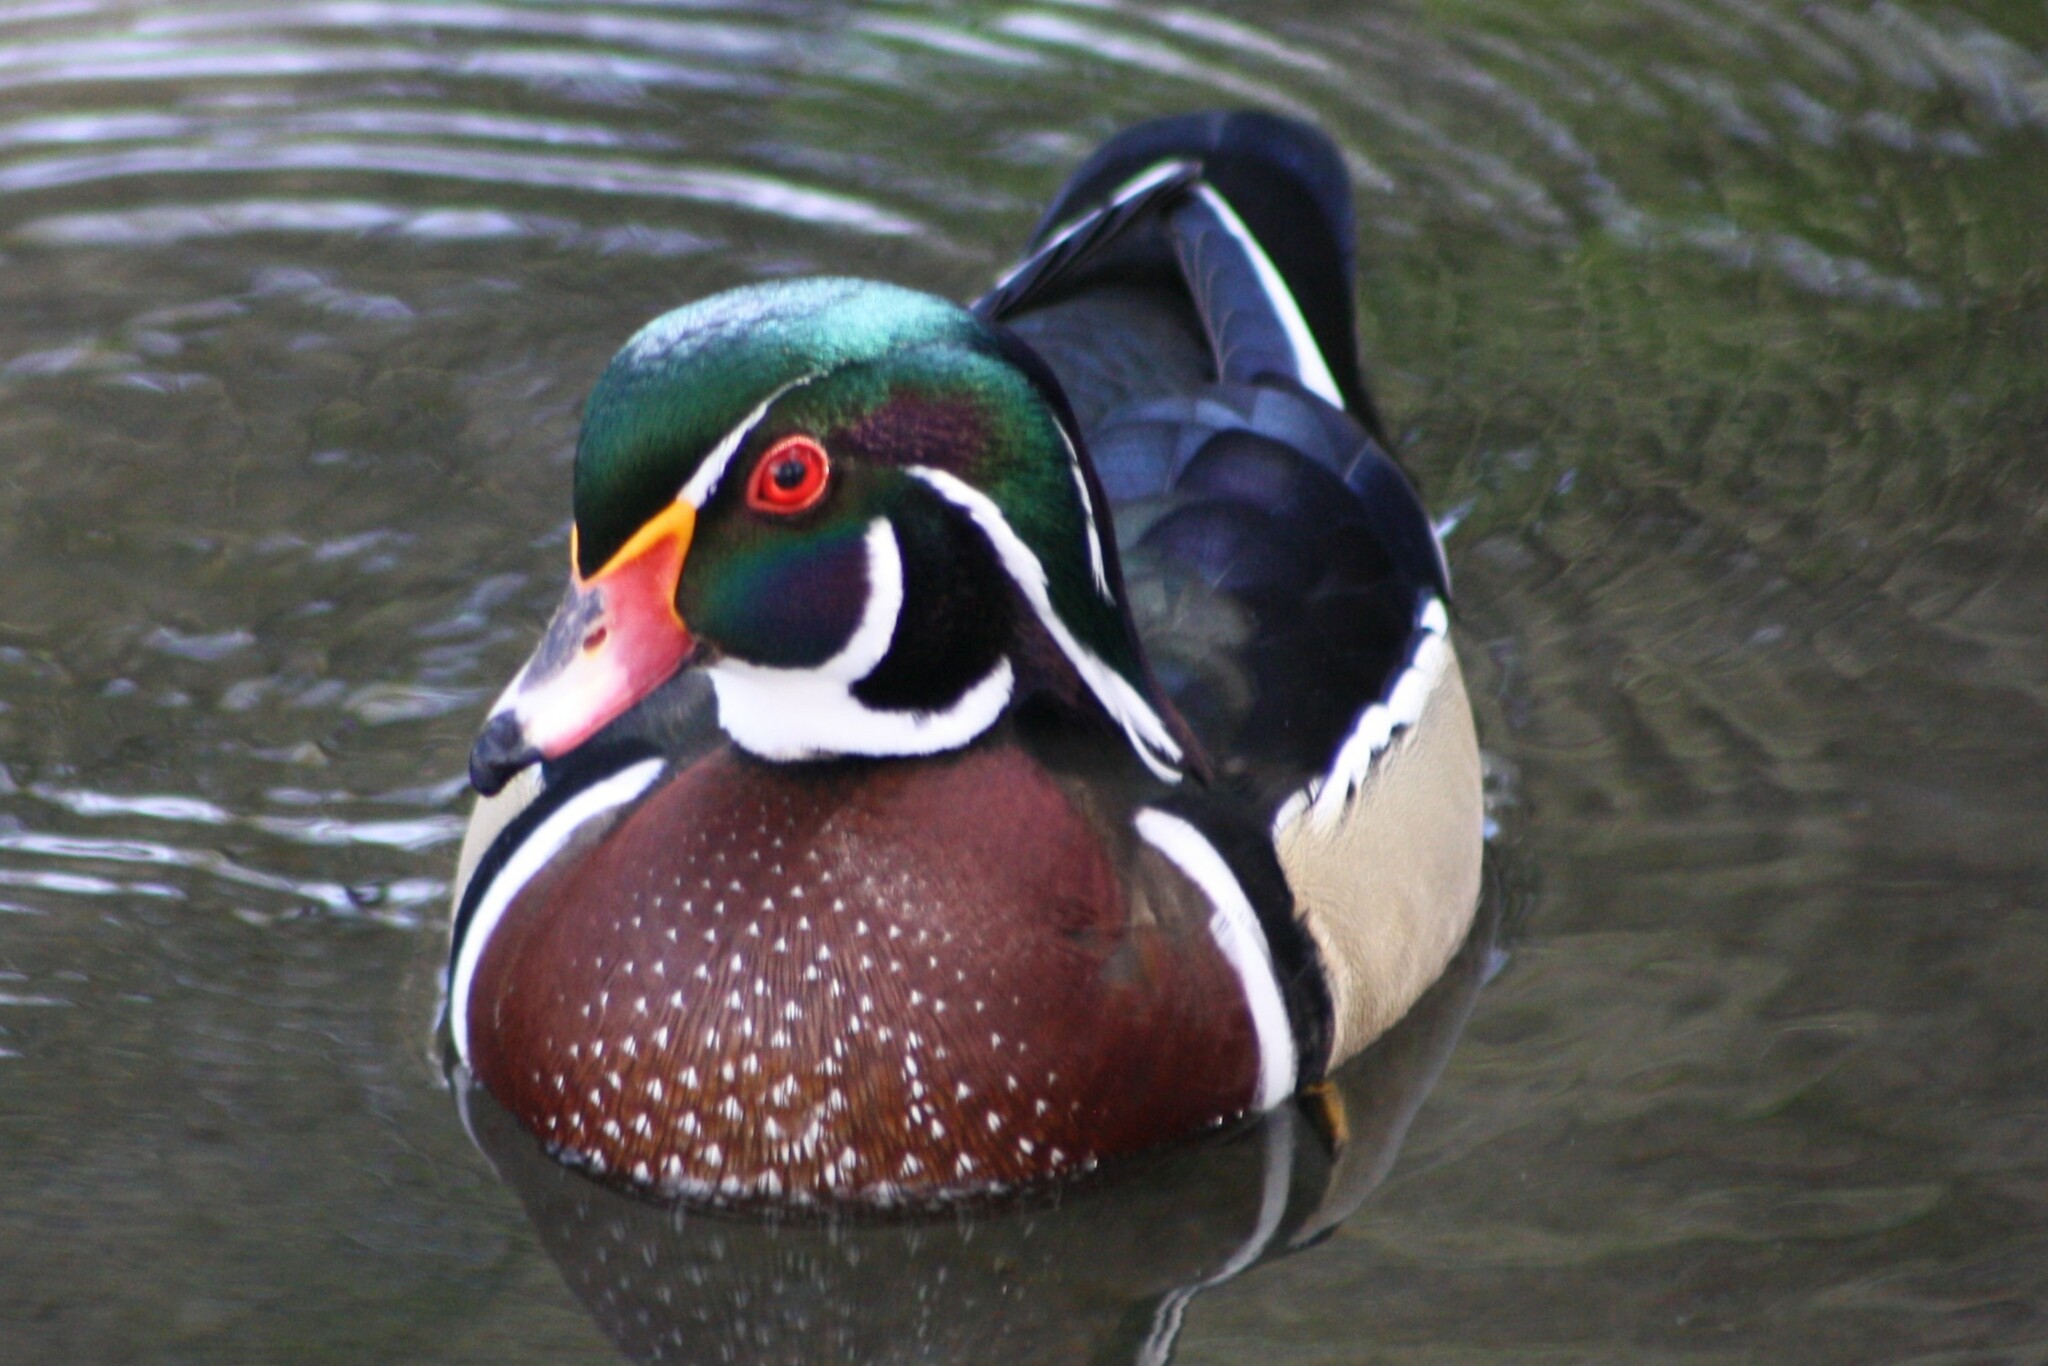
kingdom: Animalia
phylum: Chordata
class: Aves
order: Anseriformes
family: Anatidae
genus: Aix
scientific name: Aix sponsa
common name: Wood duck
